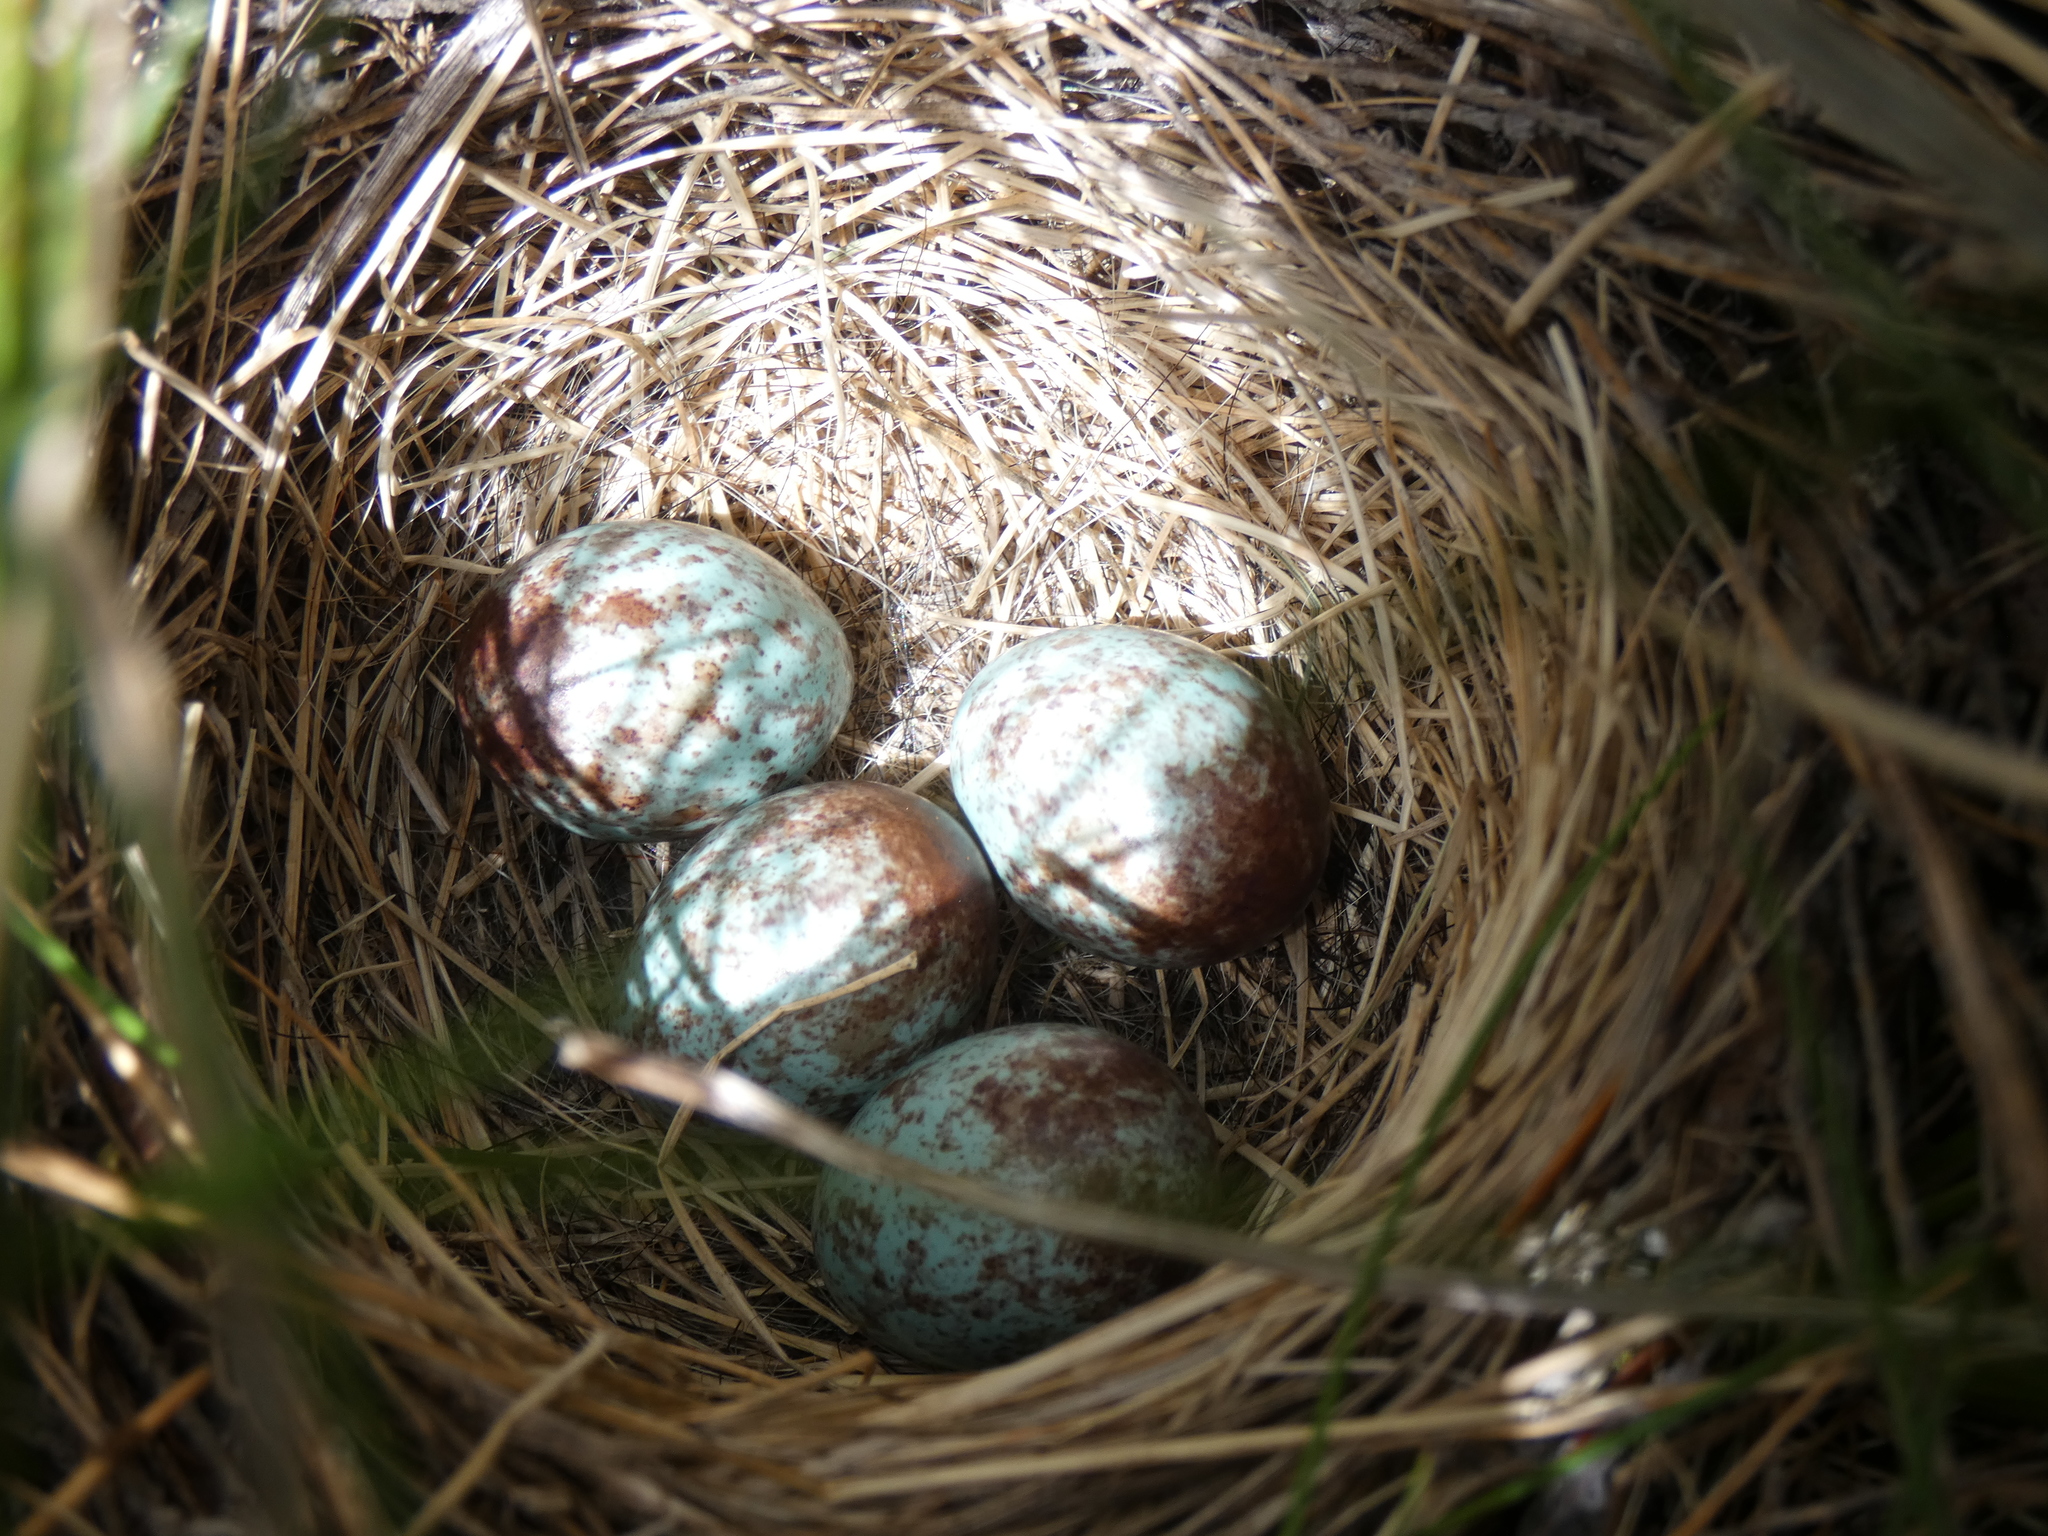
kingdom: Animalia
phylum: Chordata
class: Aves
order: Passeriformes
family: Passerellidae
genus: Zonotrichia
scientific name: Zonotrichia leucophrys
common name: White-crowned sparrow
